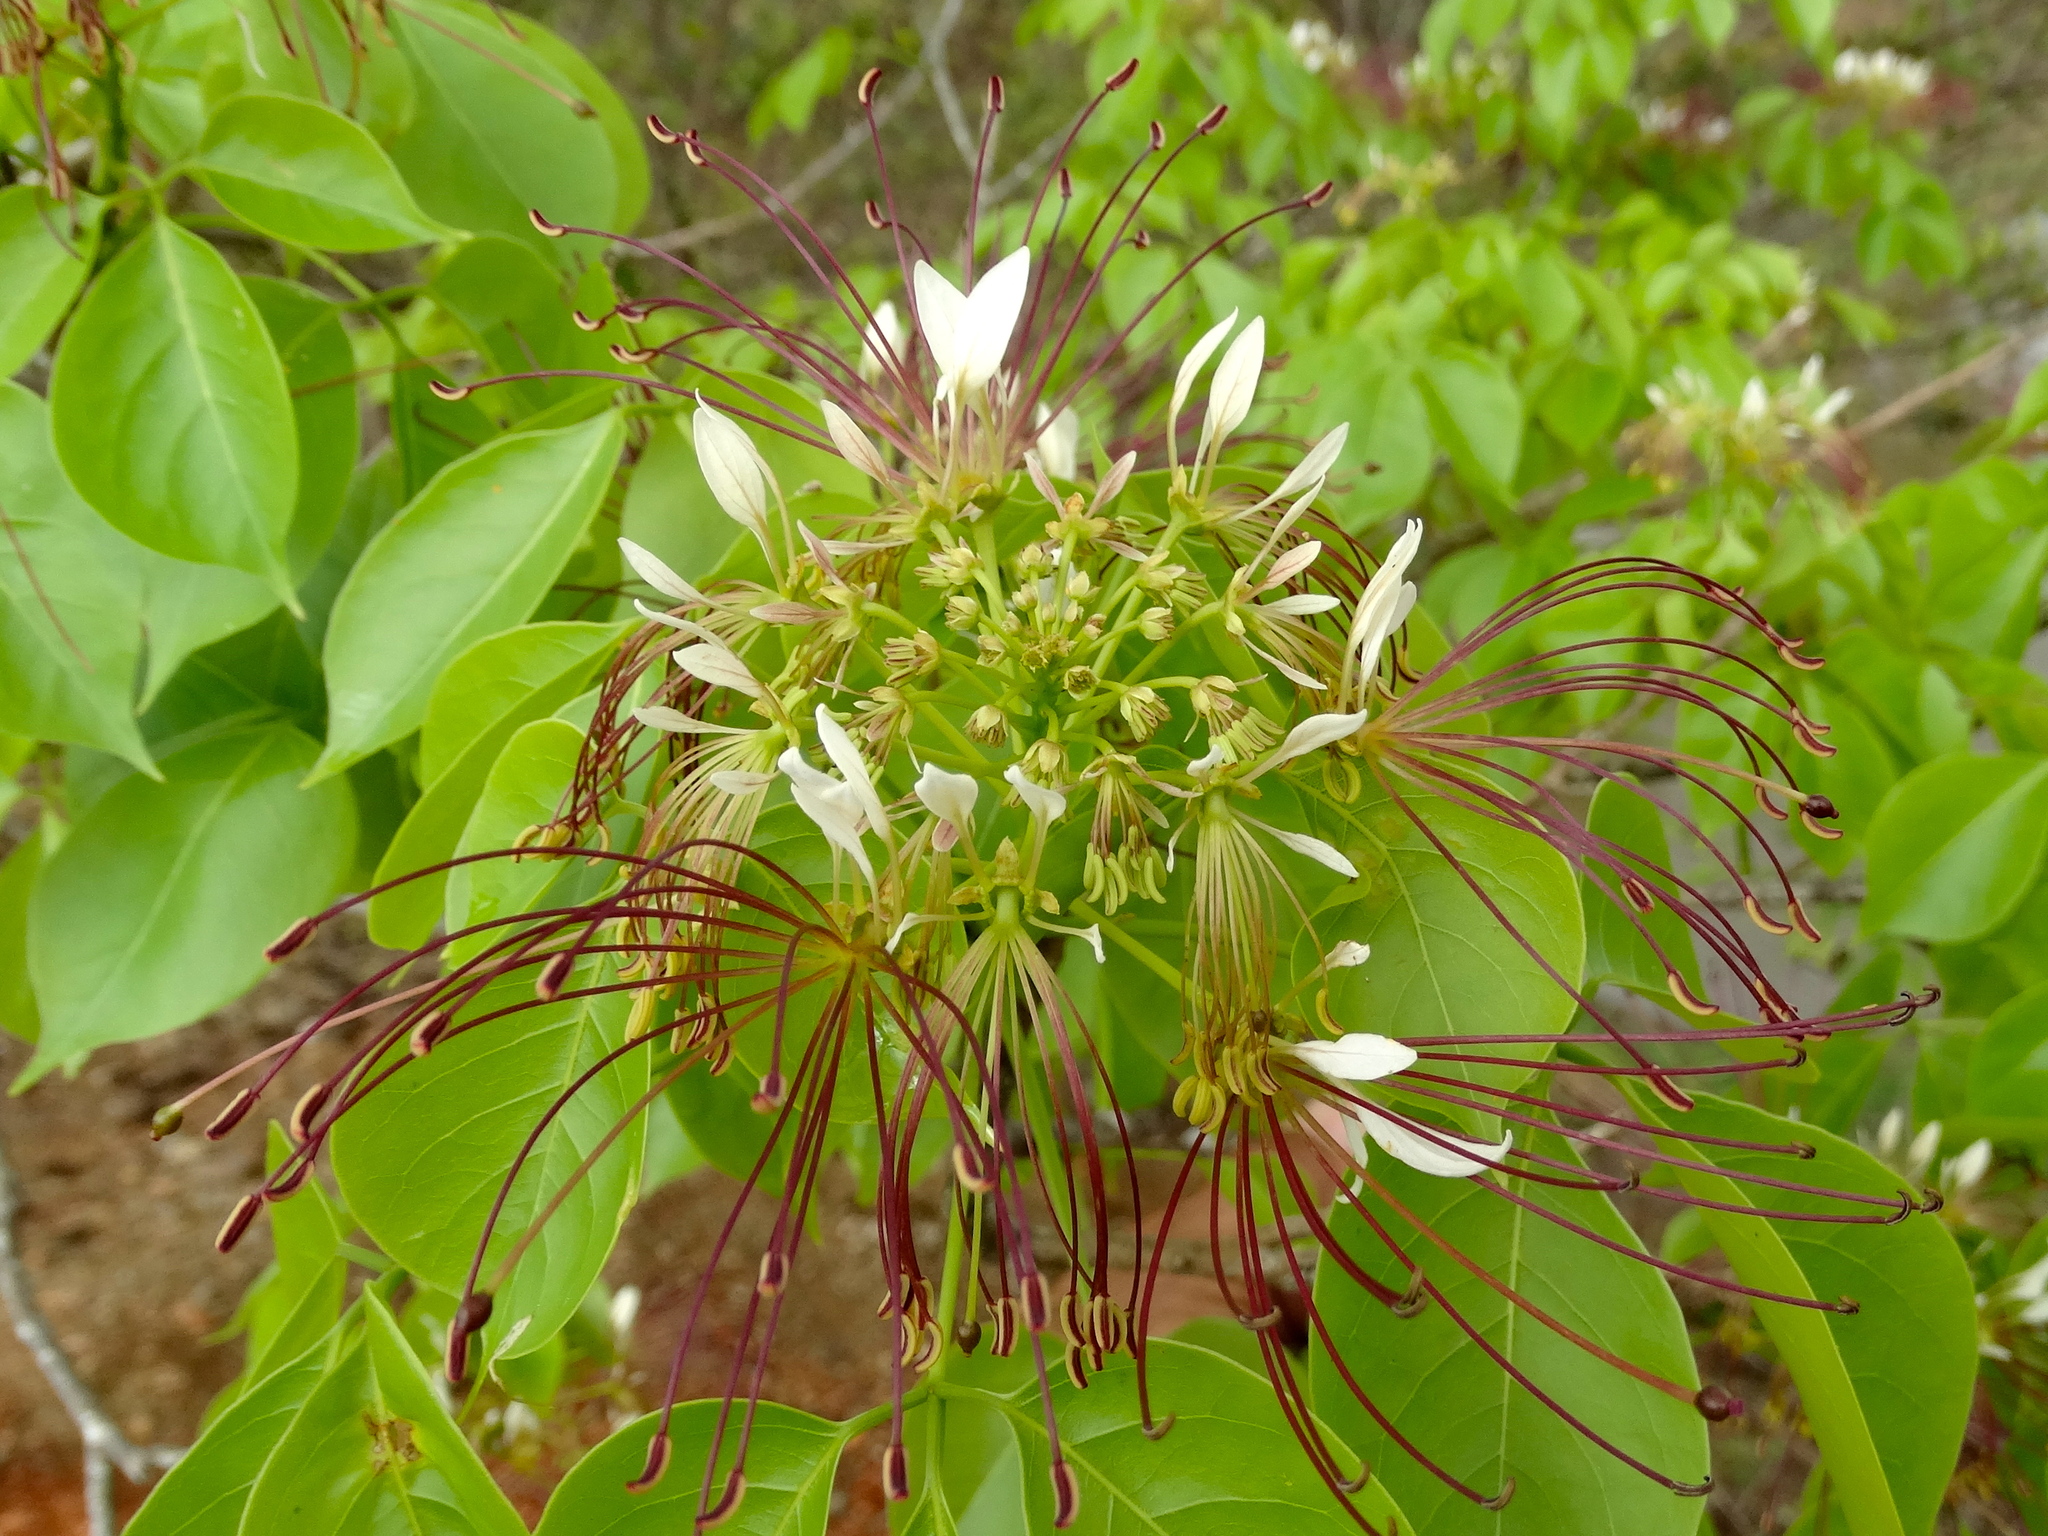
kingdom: Plantae
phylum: Tracheophyta
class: Magnoliopsida
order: Brassicales
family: Capparaceae
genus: Crateva
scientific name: Crateva tapia
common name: Garlic-pear
